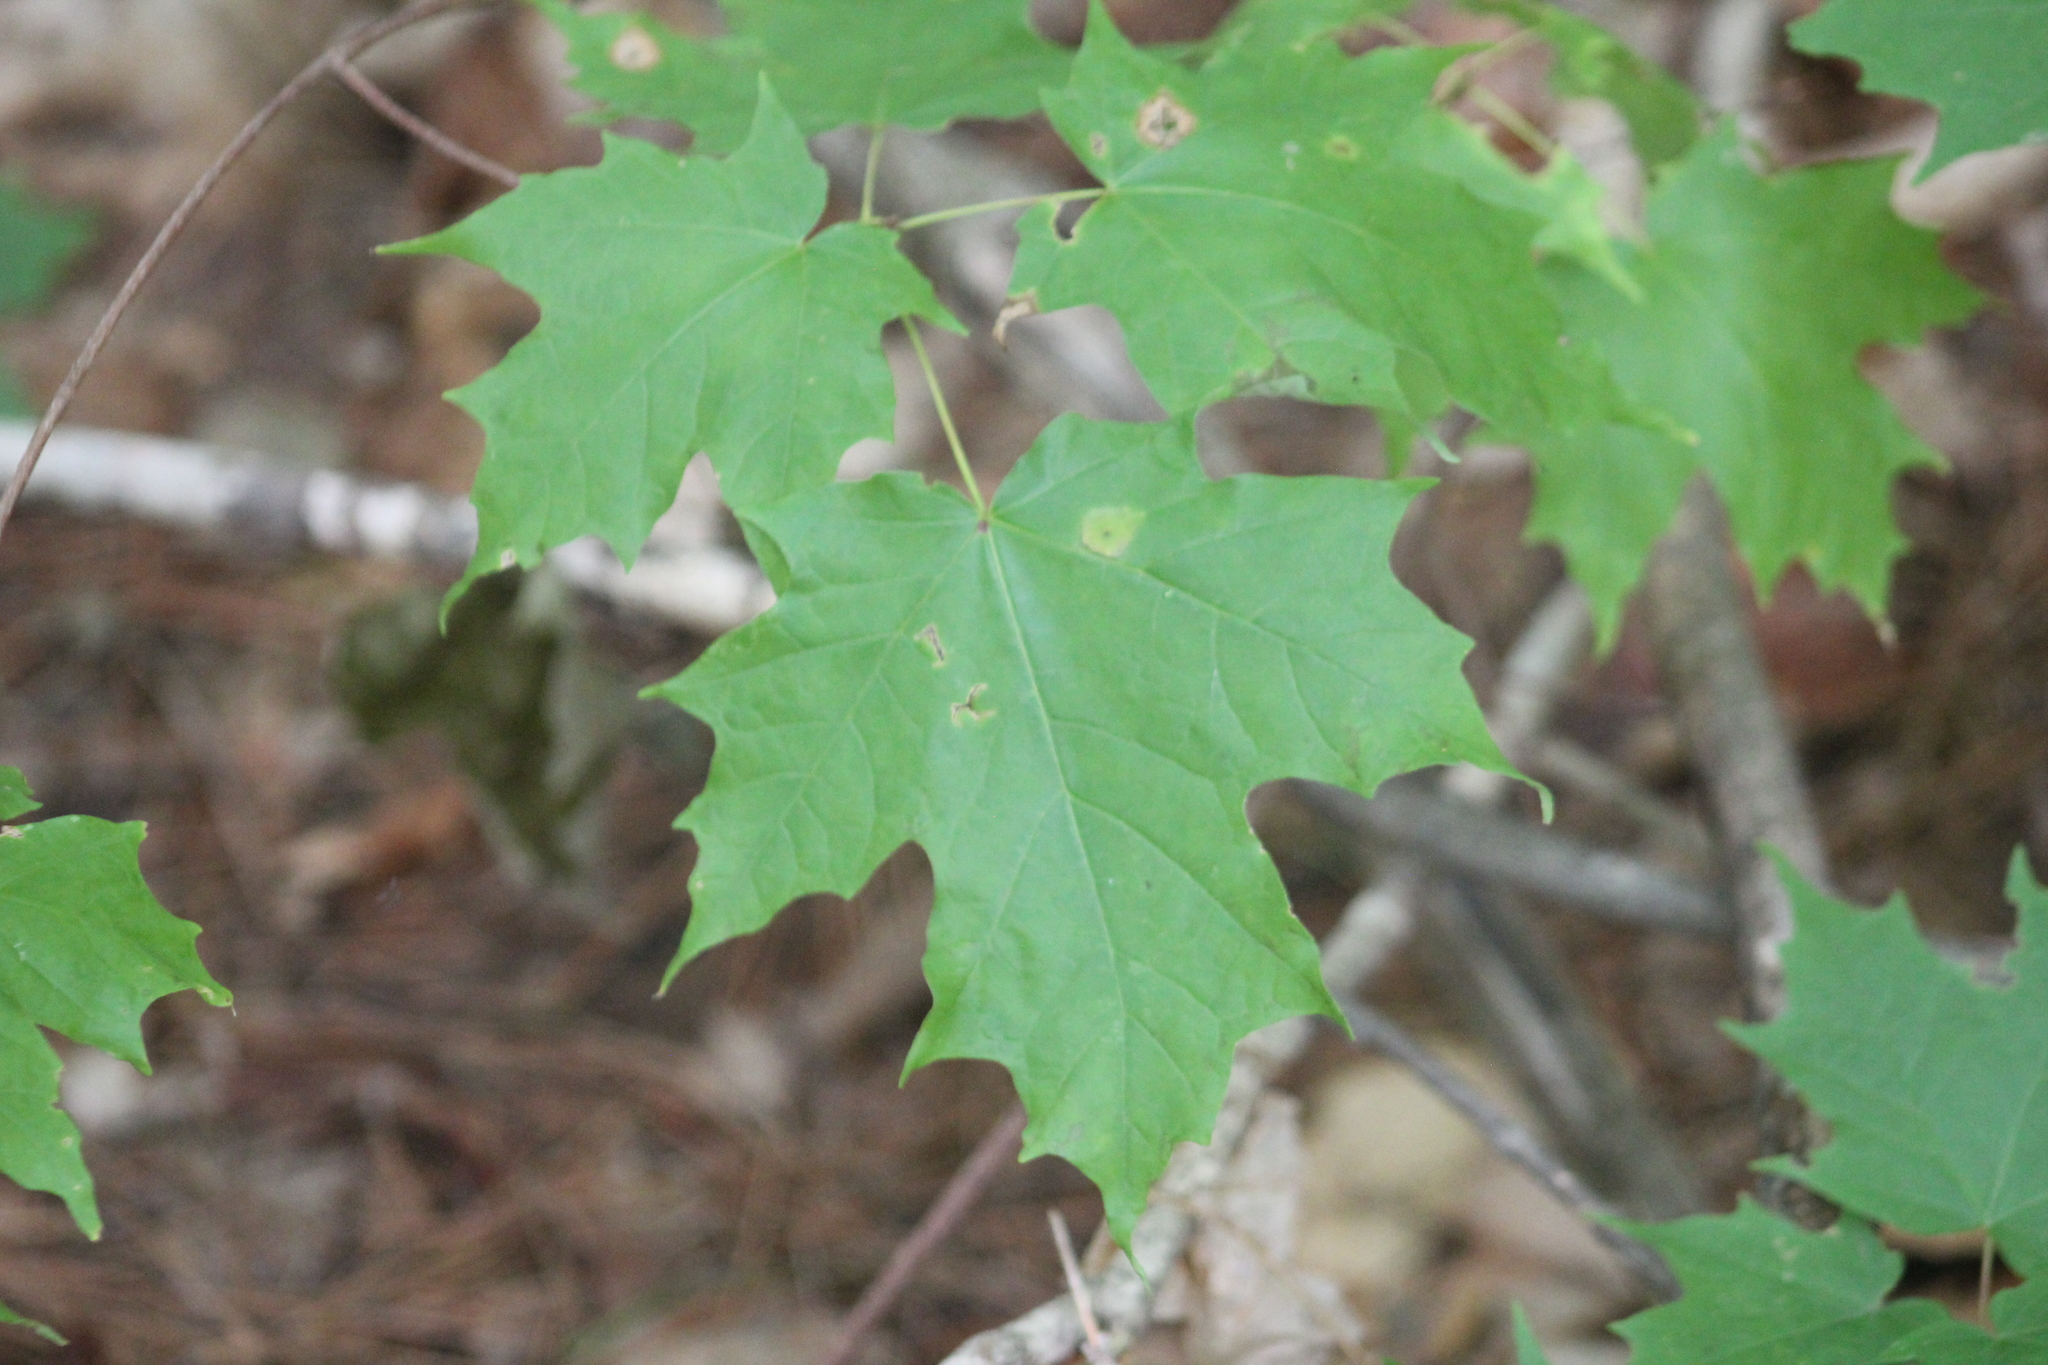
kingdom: Plantae
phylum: Tracheophyta
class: Magnoliopsida
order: Sapindales
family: Sapindaceae
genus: Acer
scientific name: Acer saccharum
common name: Sugar maple
